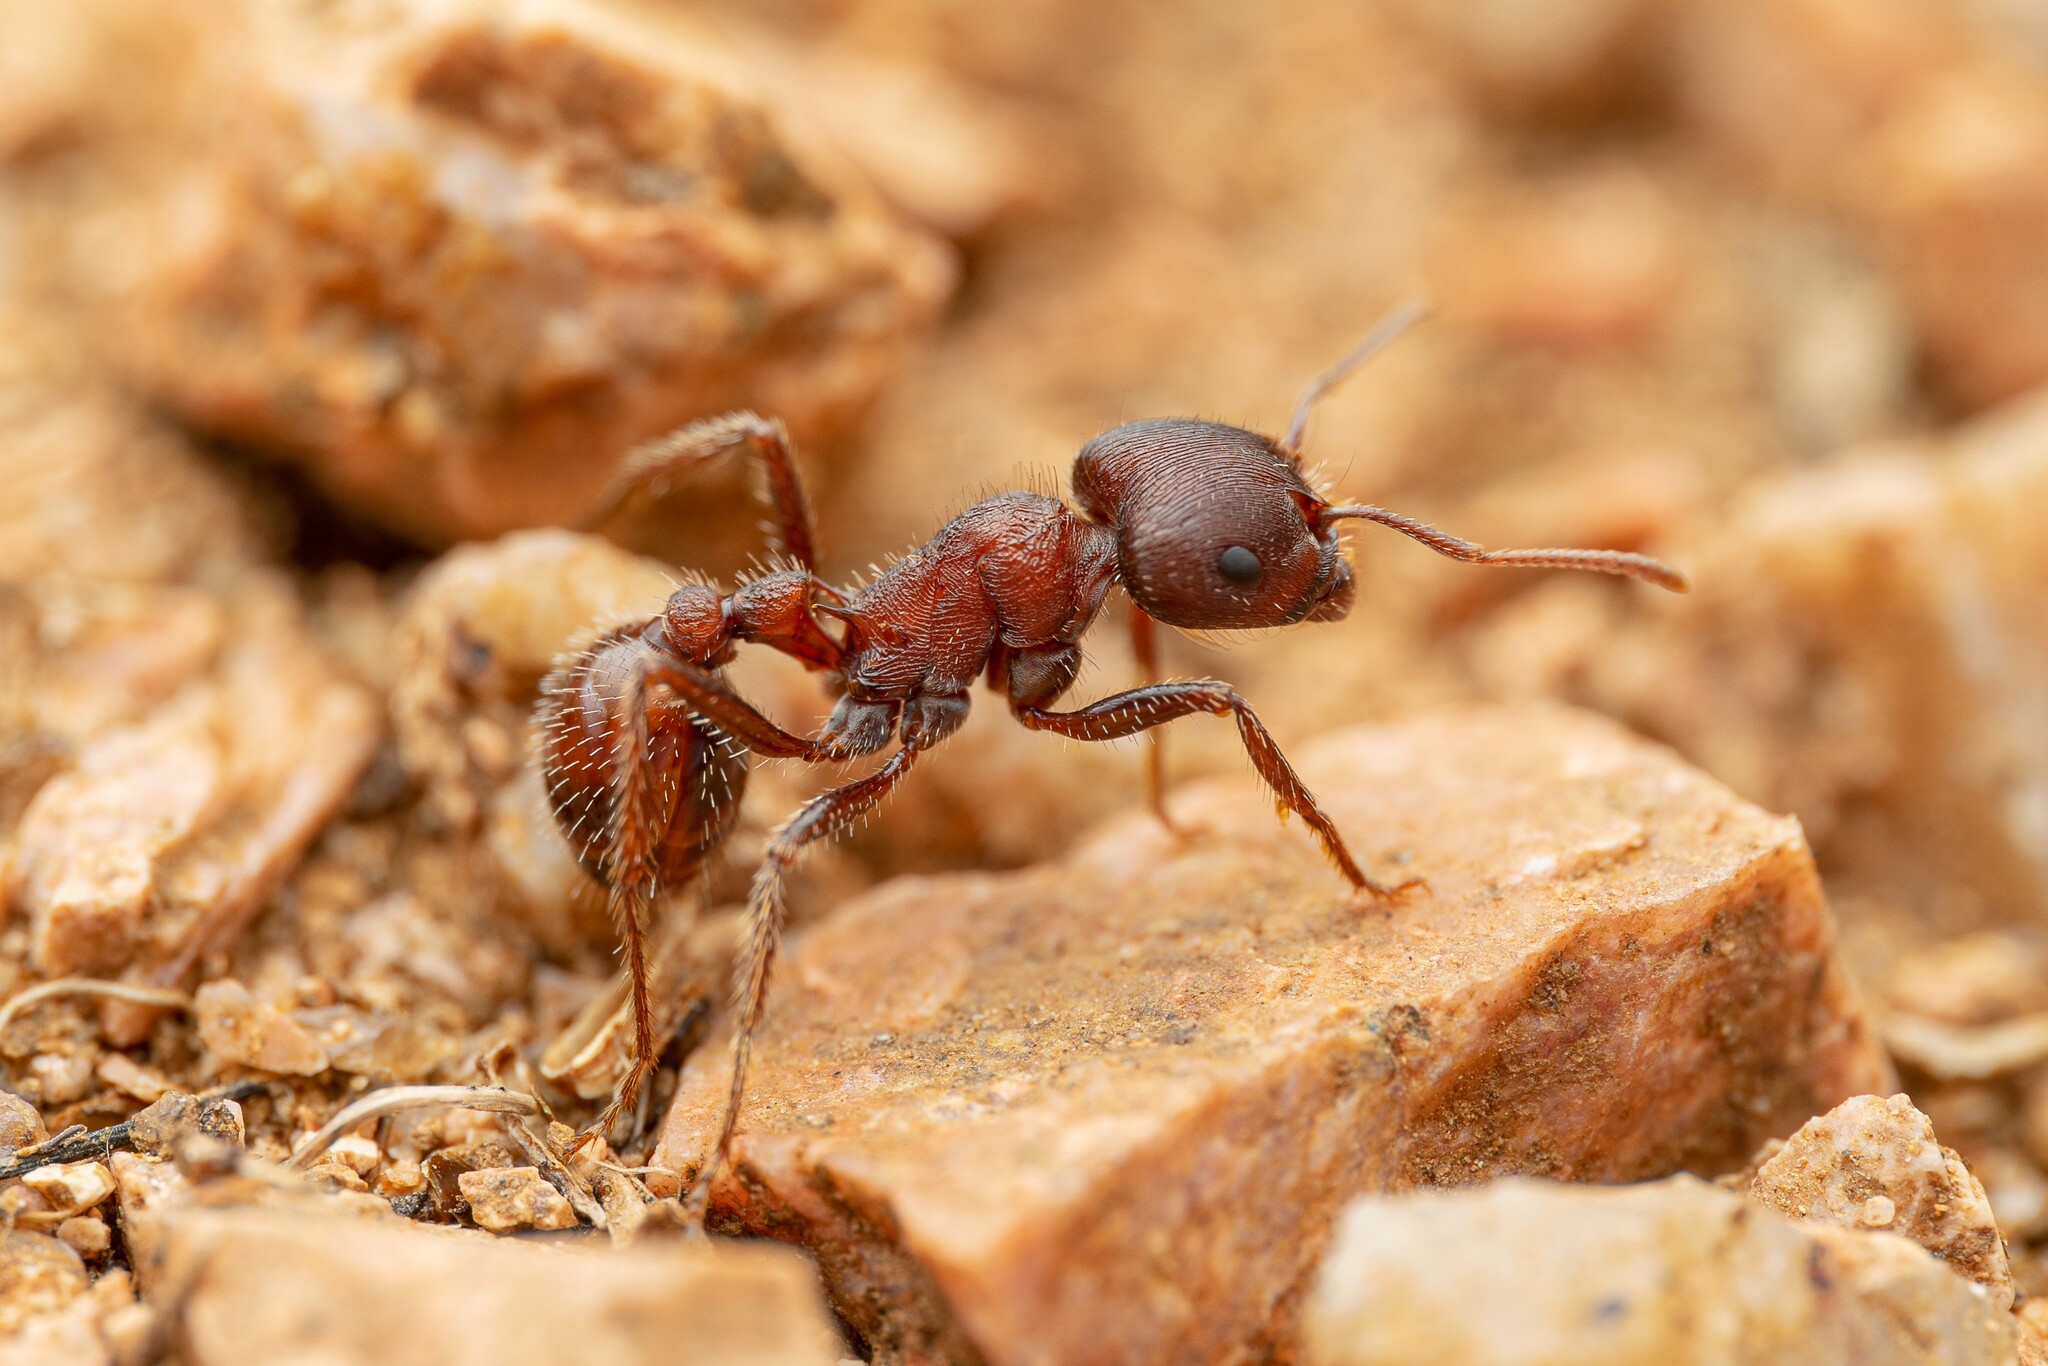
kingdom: Animalia
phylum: Arthropoda
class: Insecta
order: Hymenoptera
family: Formicidae
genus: Pogonomyrmex
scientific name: Pogonomyrmex rugosus
